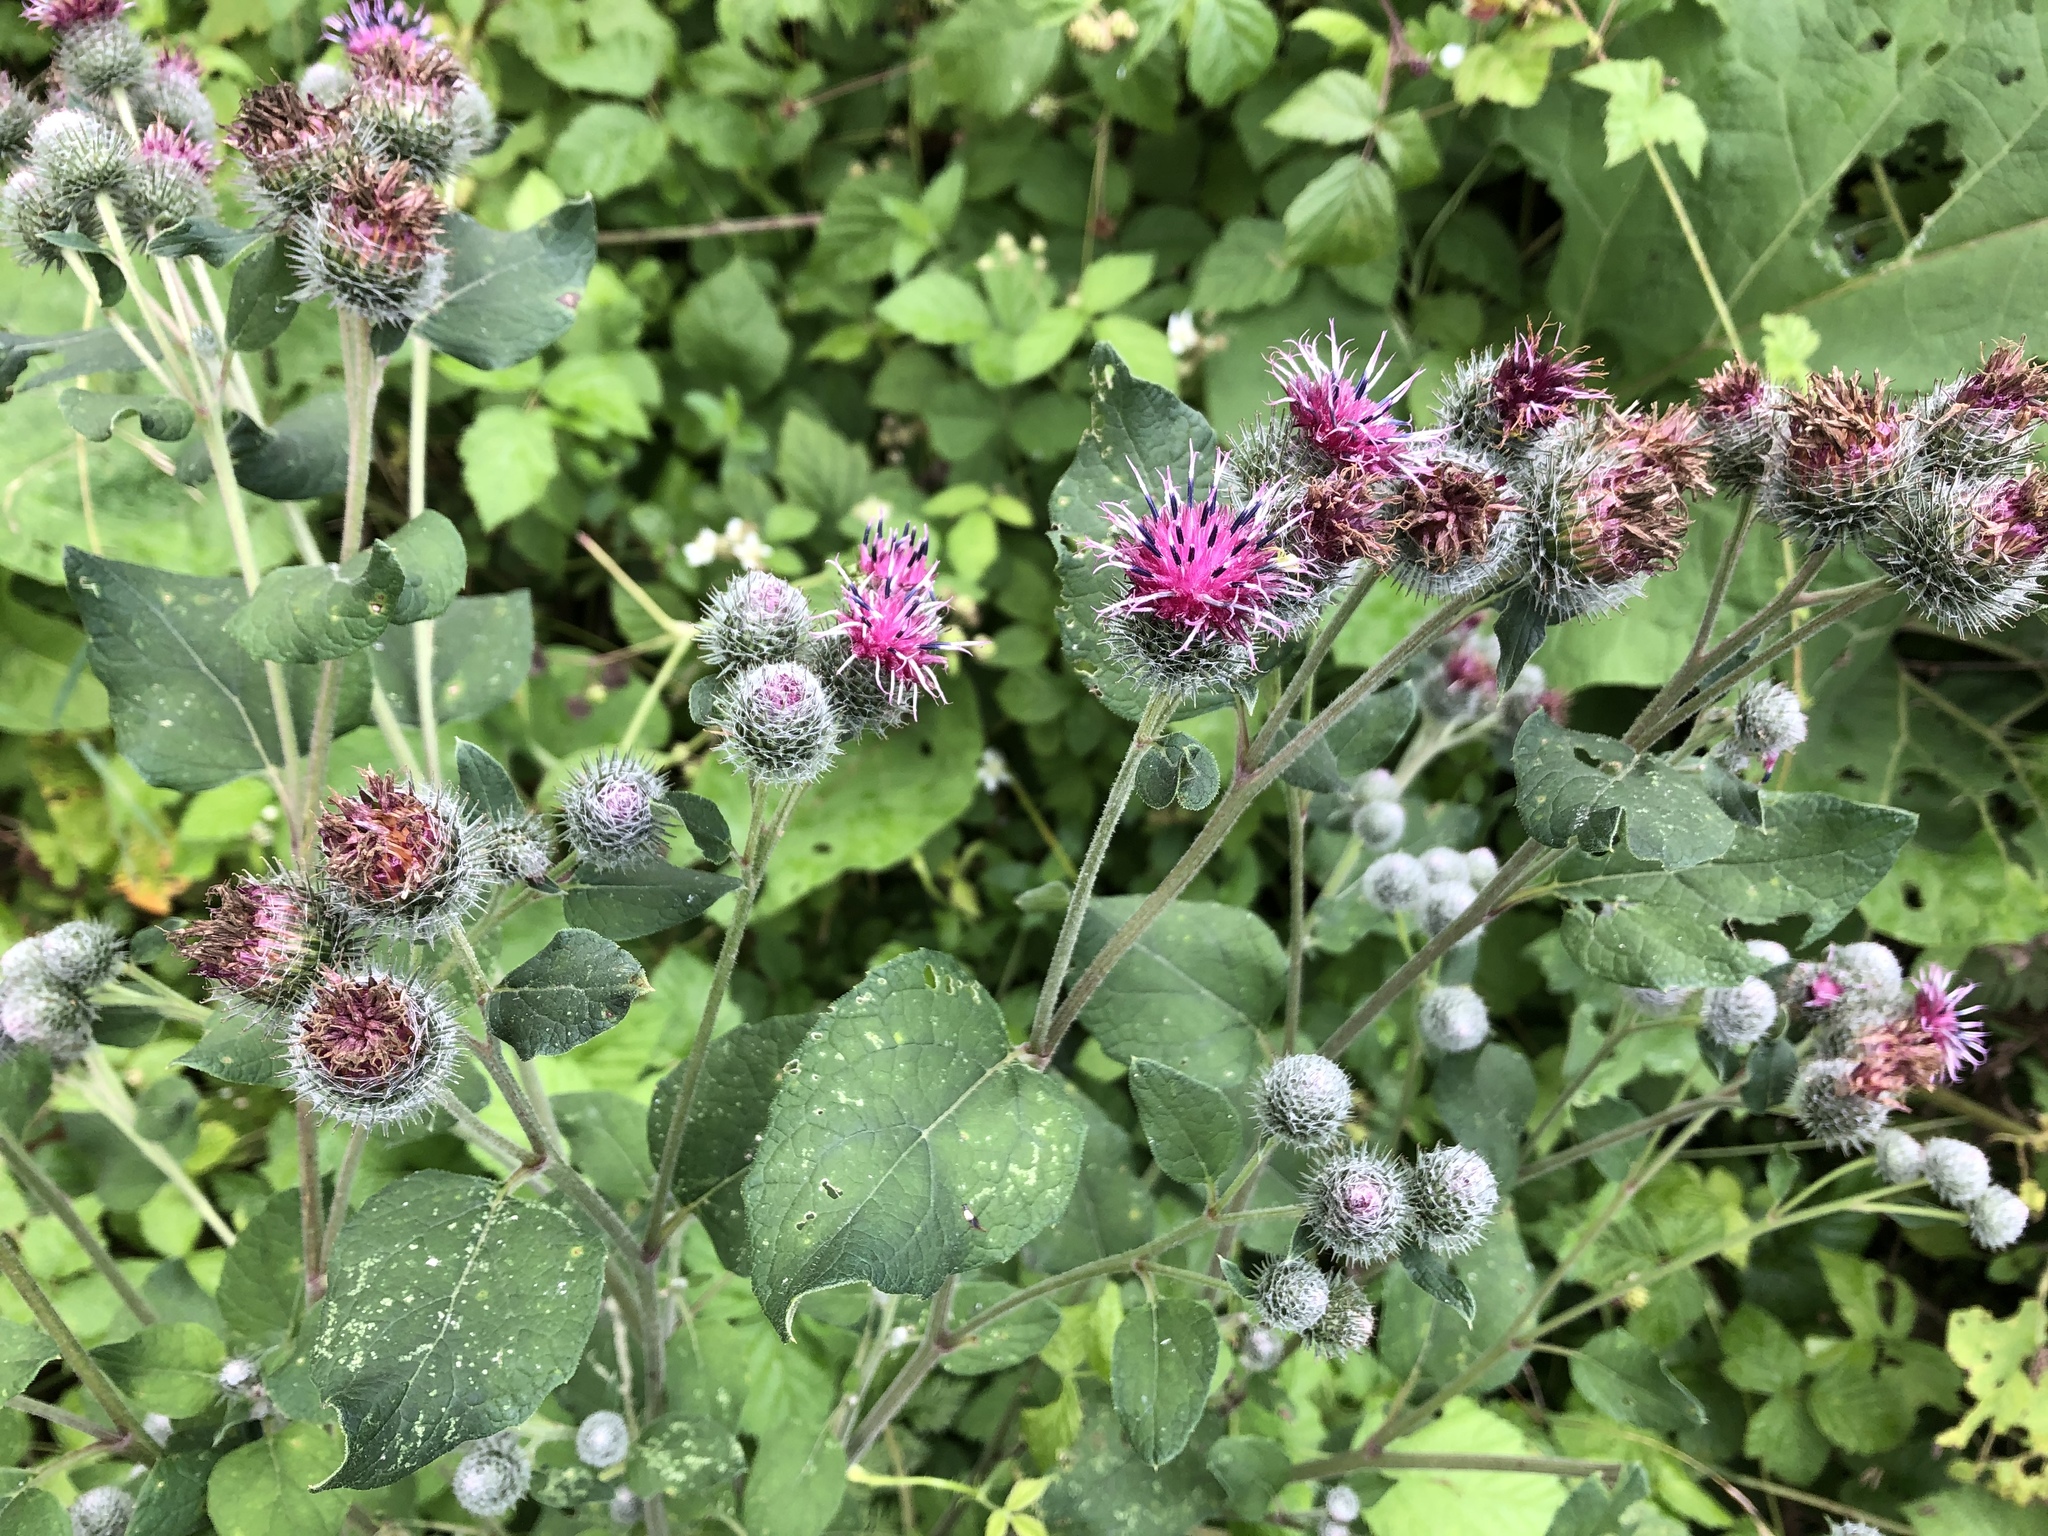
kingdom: Plantae
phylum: Tracheophyta
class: Magnoliopsida
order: Asterales
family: Asteraceae
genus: Arctium
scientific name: Arctium tomentosum
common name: Woolly burdock
